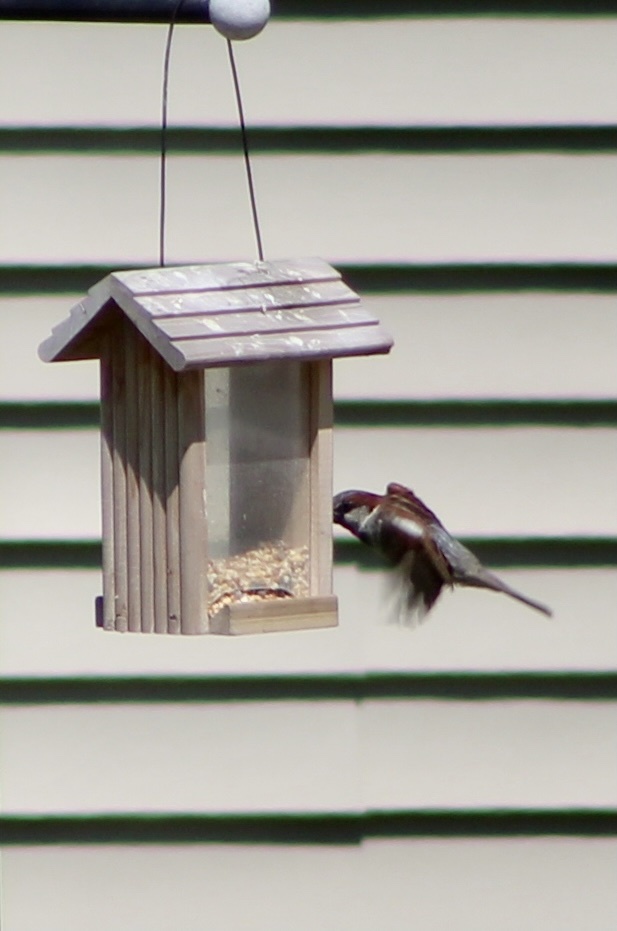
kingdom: Animalia
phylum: Chordata
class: Aves
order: Passeriformes
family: Passeridae
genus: Passer
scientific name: Passer domesticus
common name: House sparrow
